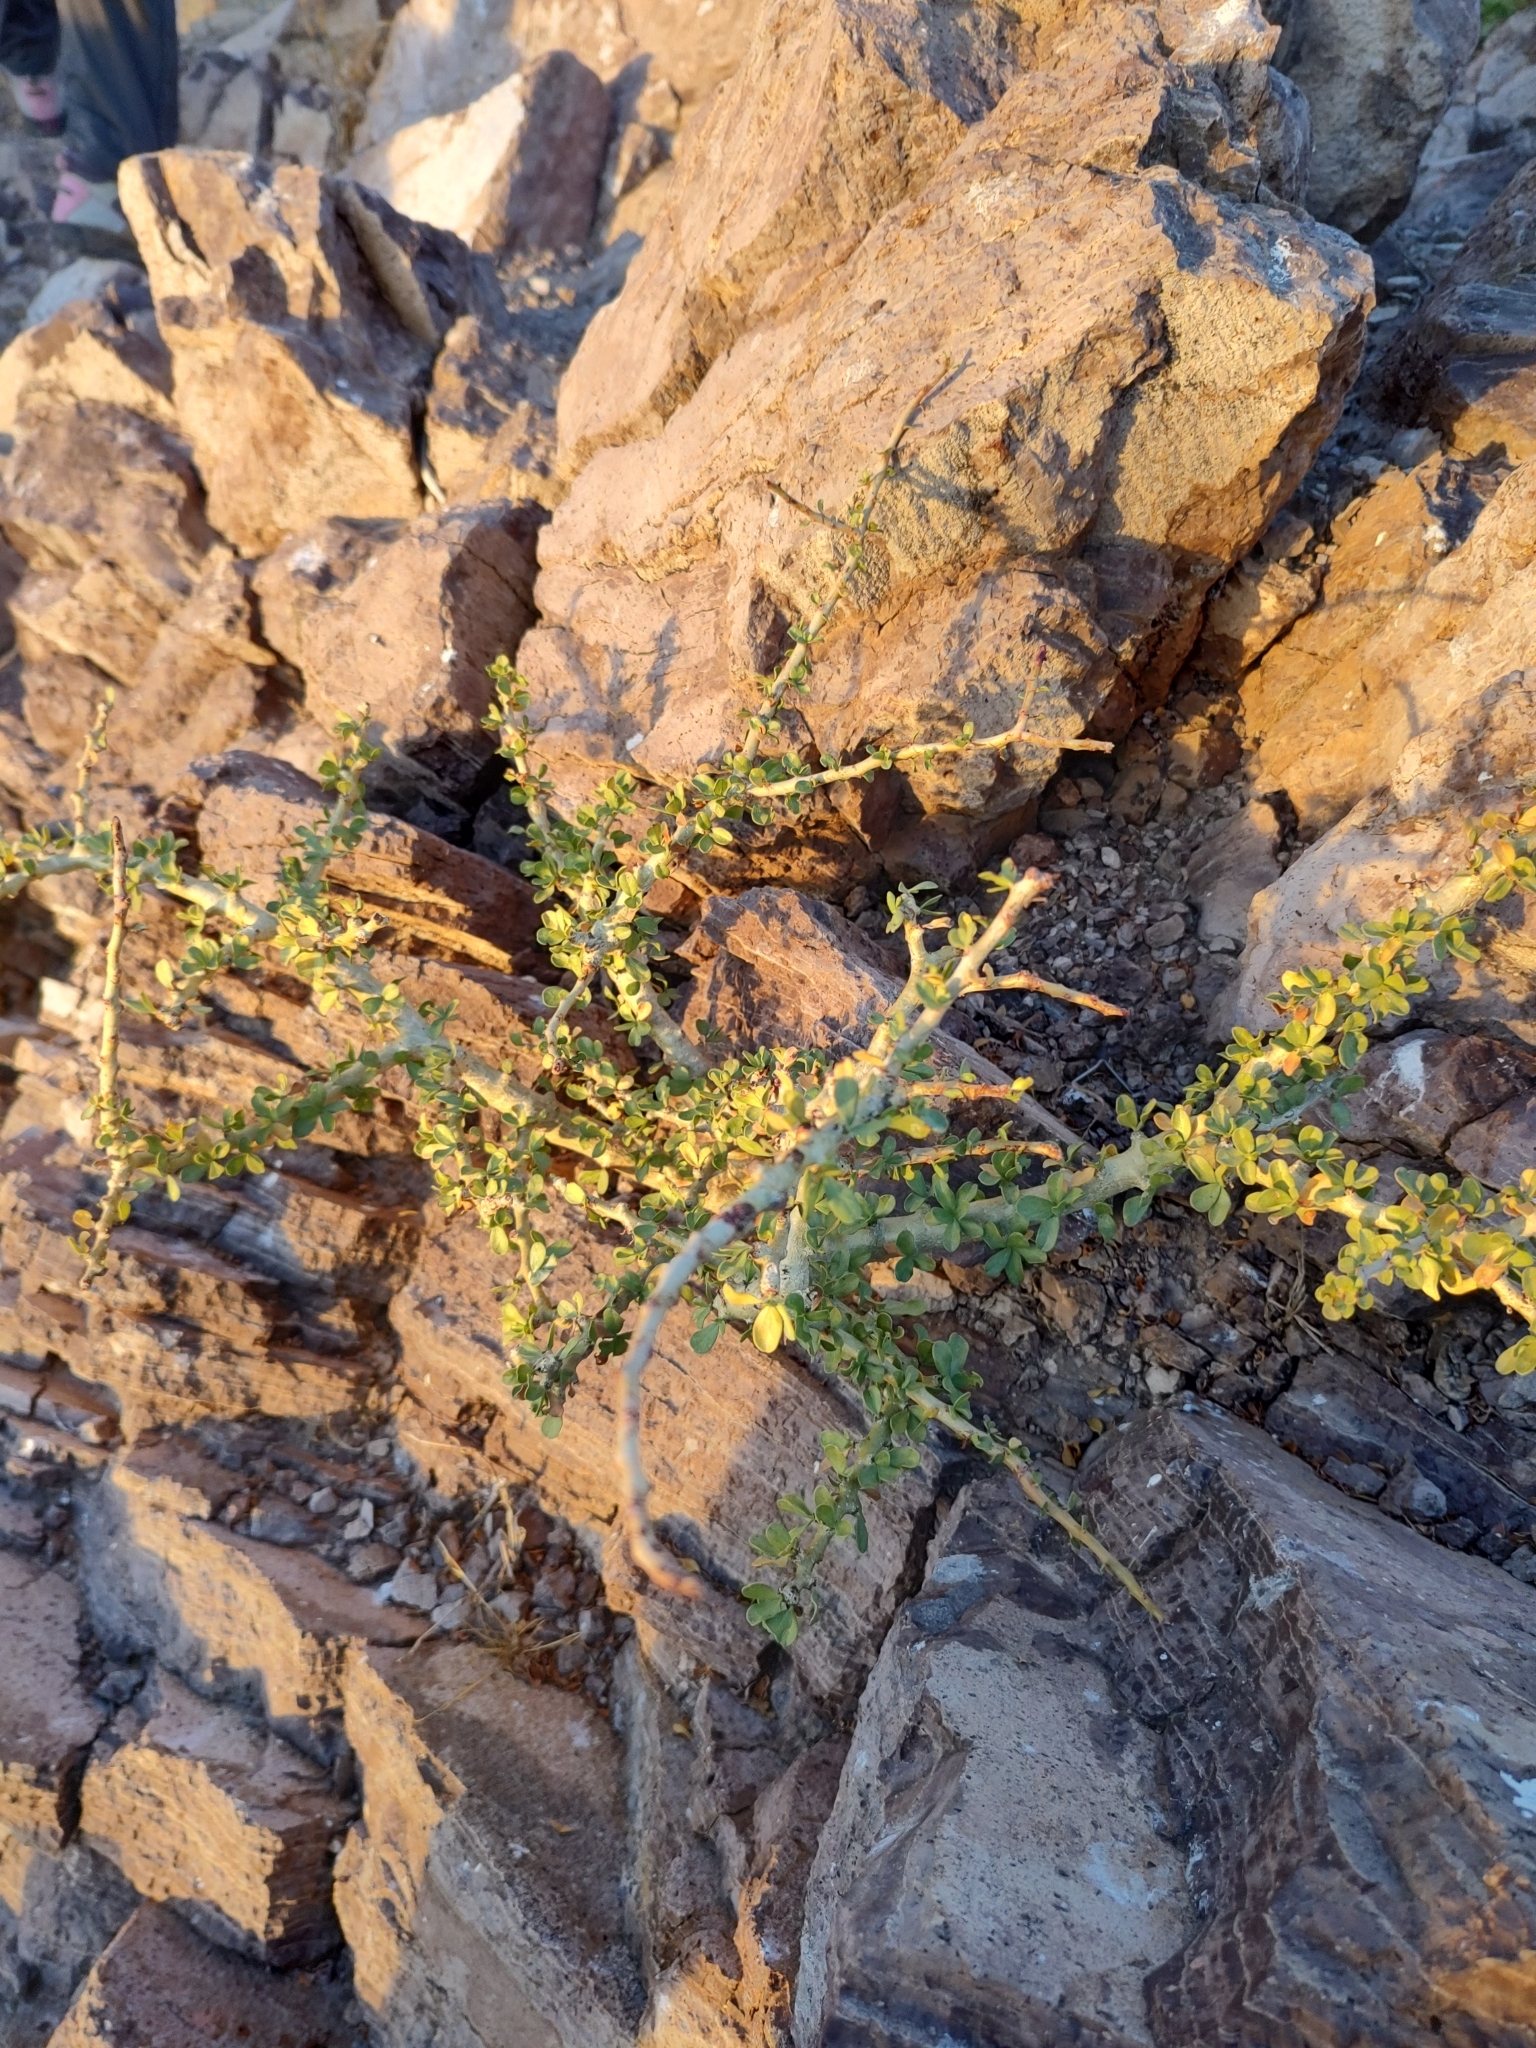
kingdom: Plantae
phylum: Tracheophyta
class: Magnoliopsida
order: Malpighiales
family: Euphorbiaceae
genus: Jatropha
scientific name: Jatropha cuneata
